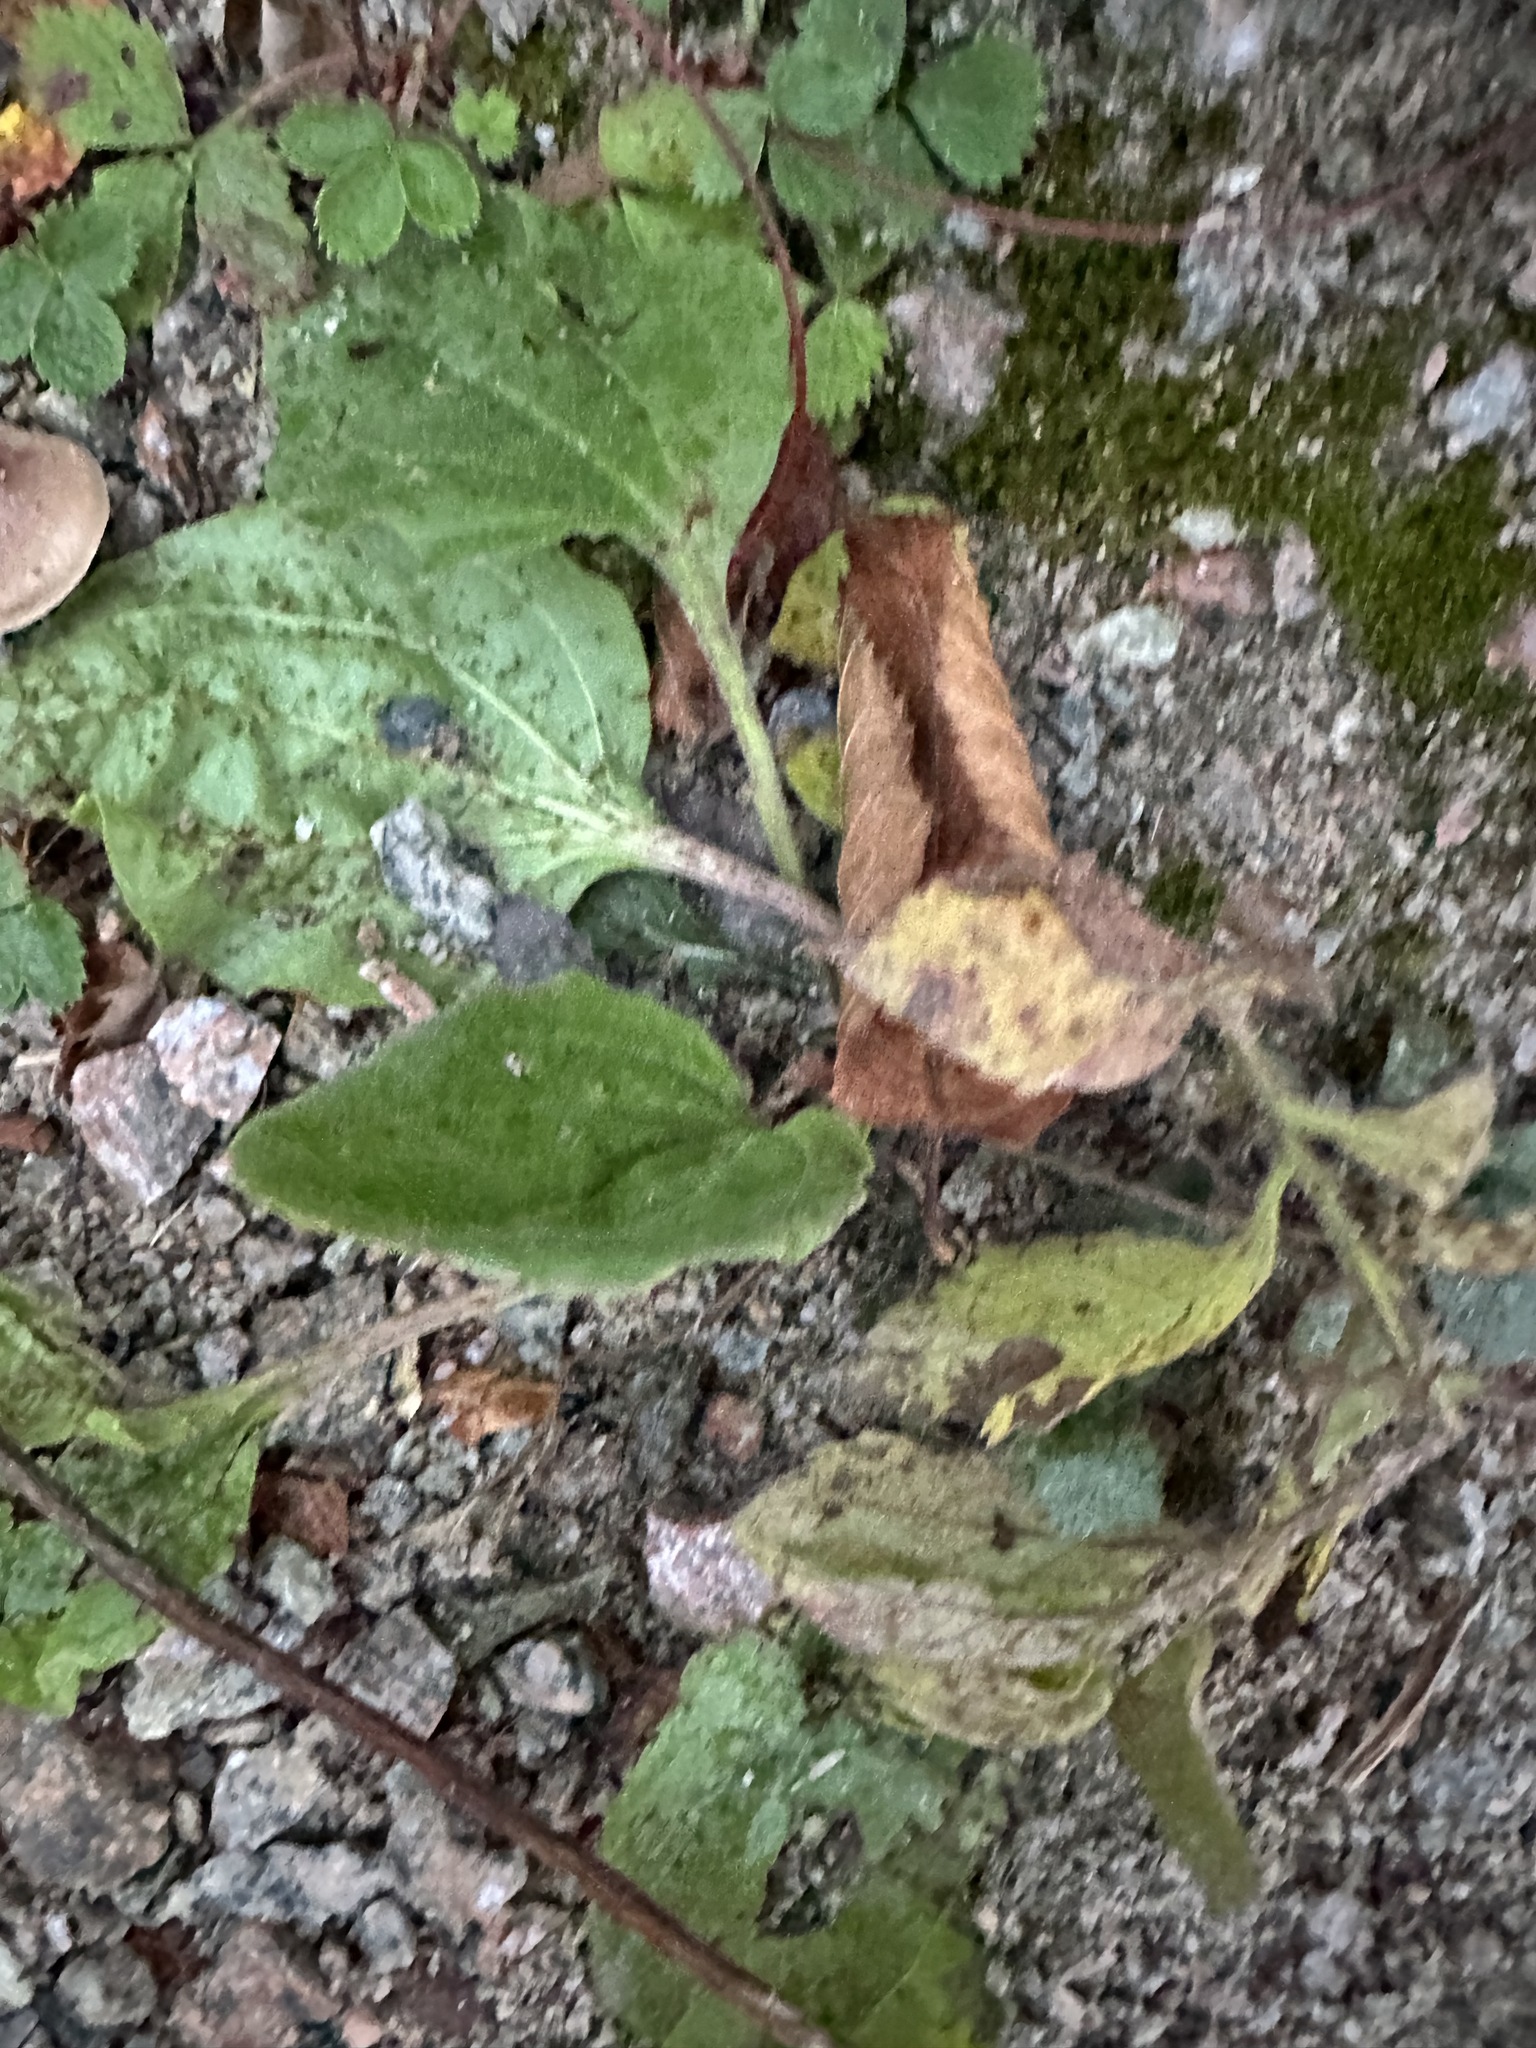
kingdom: Plantae
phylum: Tracheophyta
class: Magnoliopsida
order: Lamiales
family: Plantaginaceae
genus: Plantago
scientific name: Plantago major
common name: Common plantain
